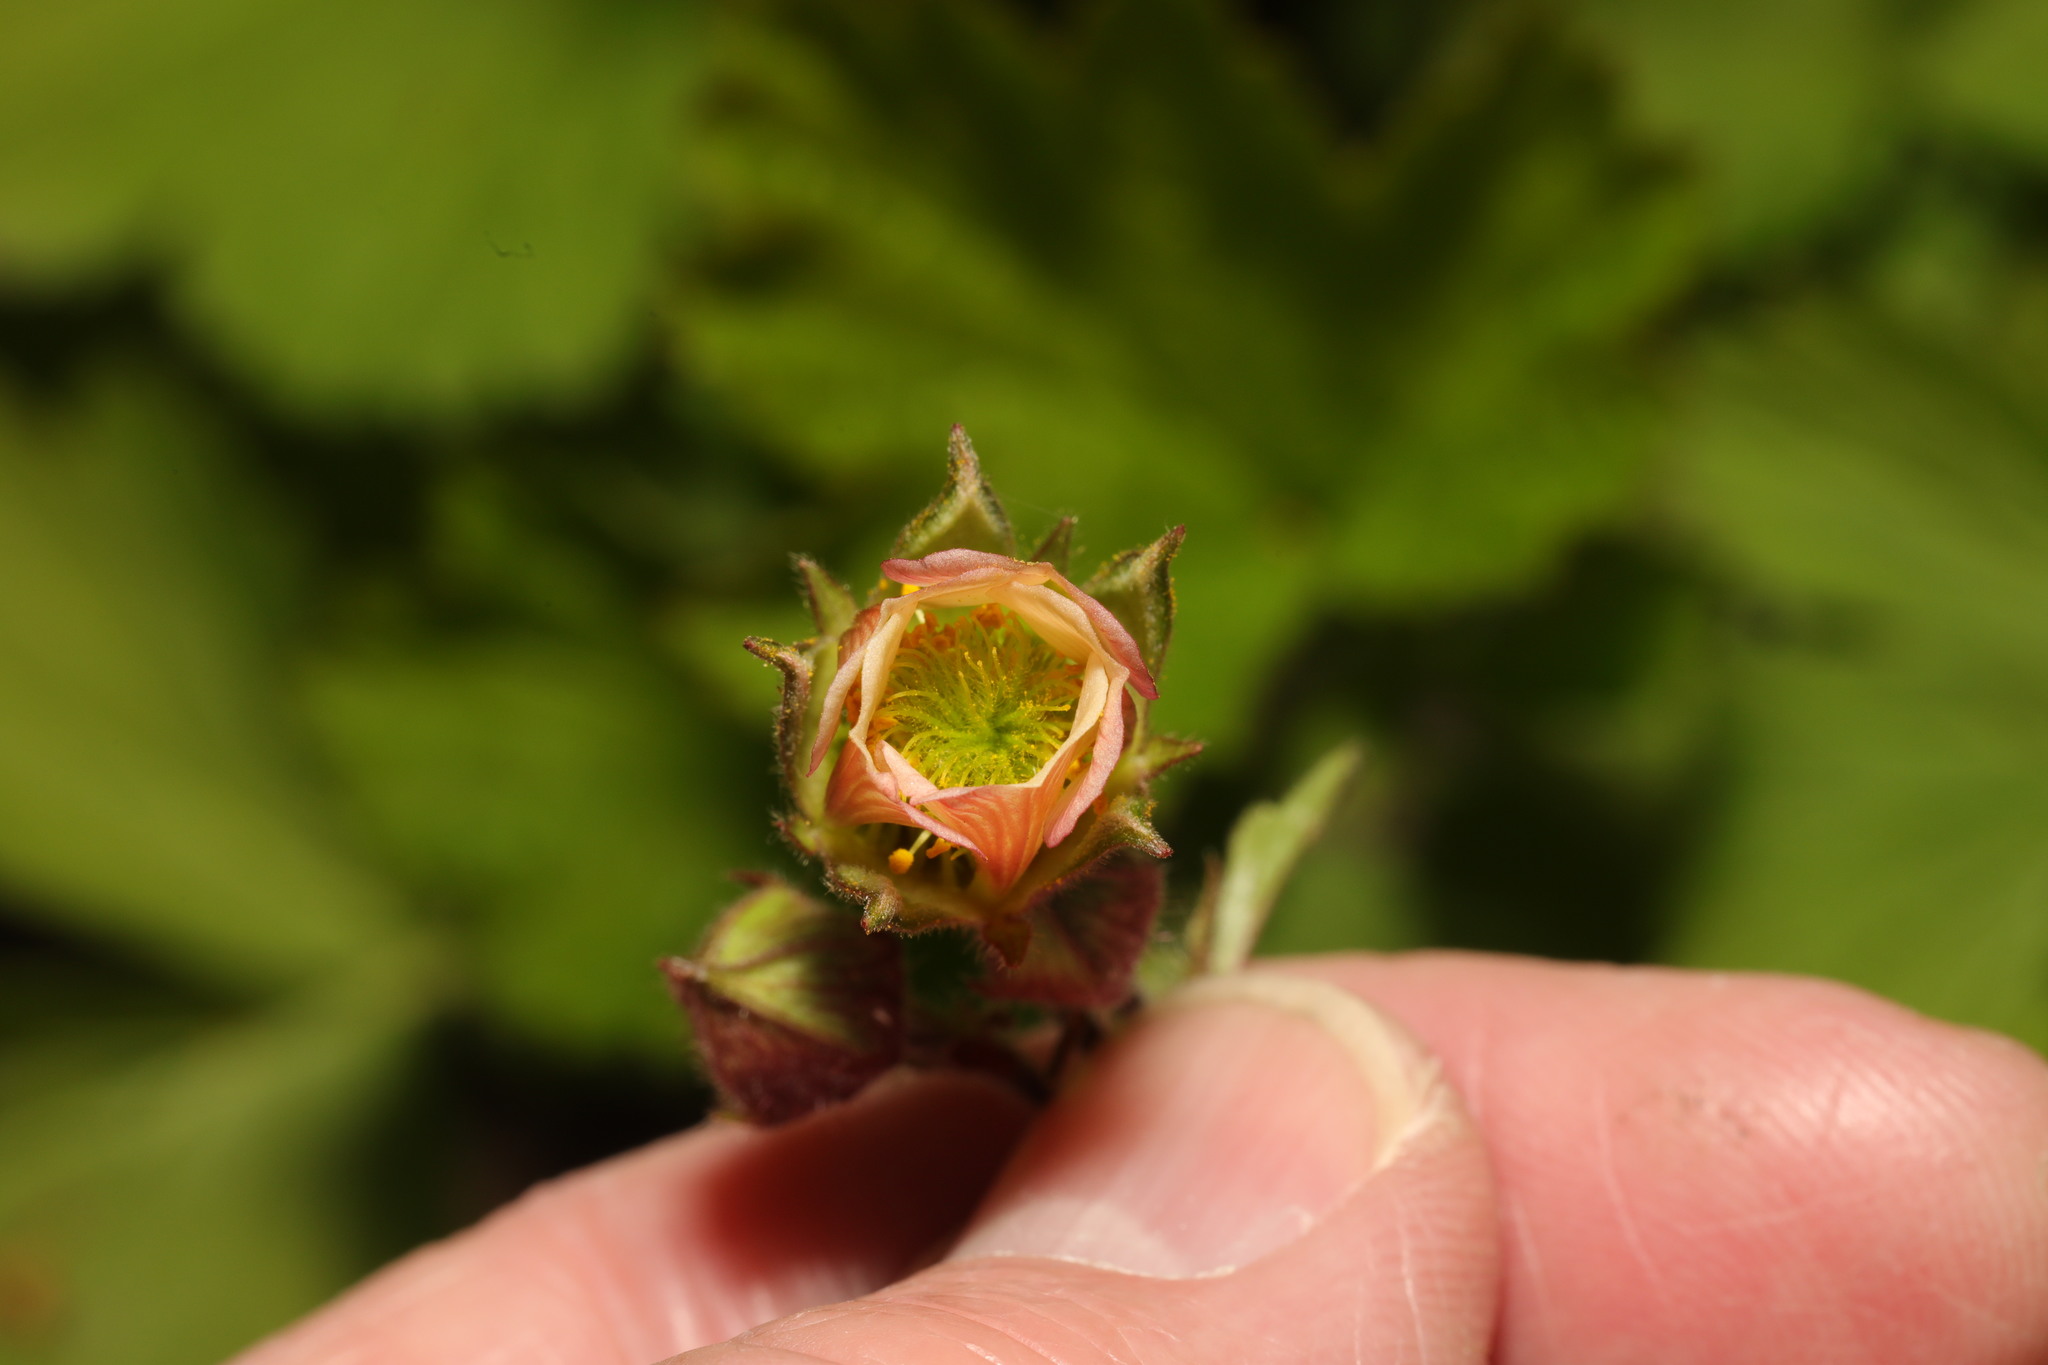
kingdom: Plantae
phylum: Tracheophyta
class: Magnoliopsida
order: Rosales
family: Rosaceae
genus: Geum
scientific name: Geum rivale
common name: Water avens
